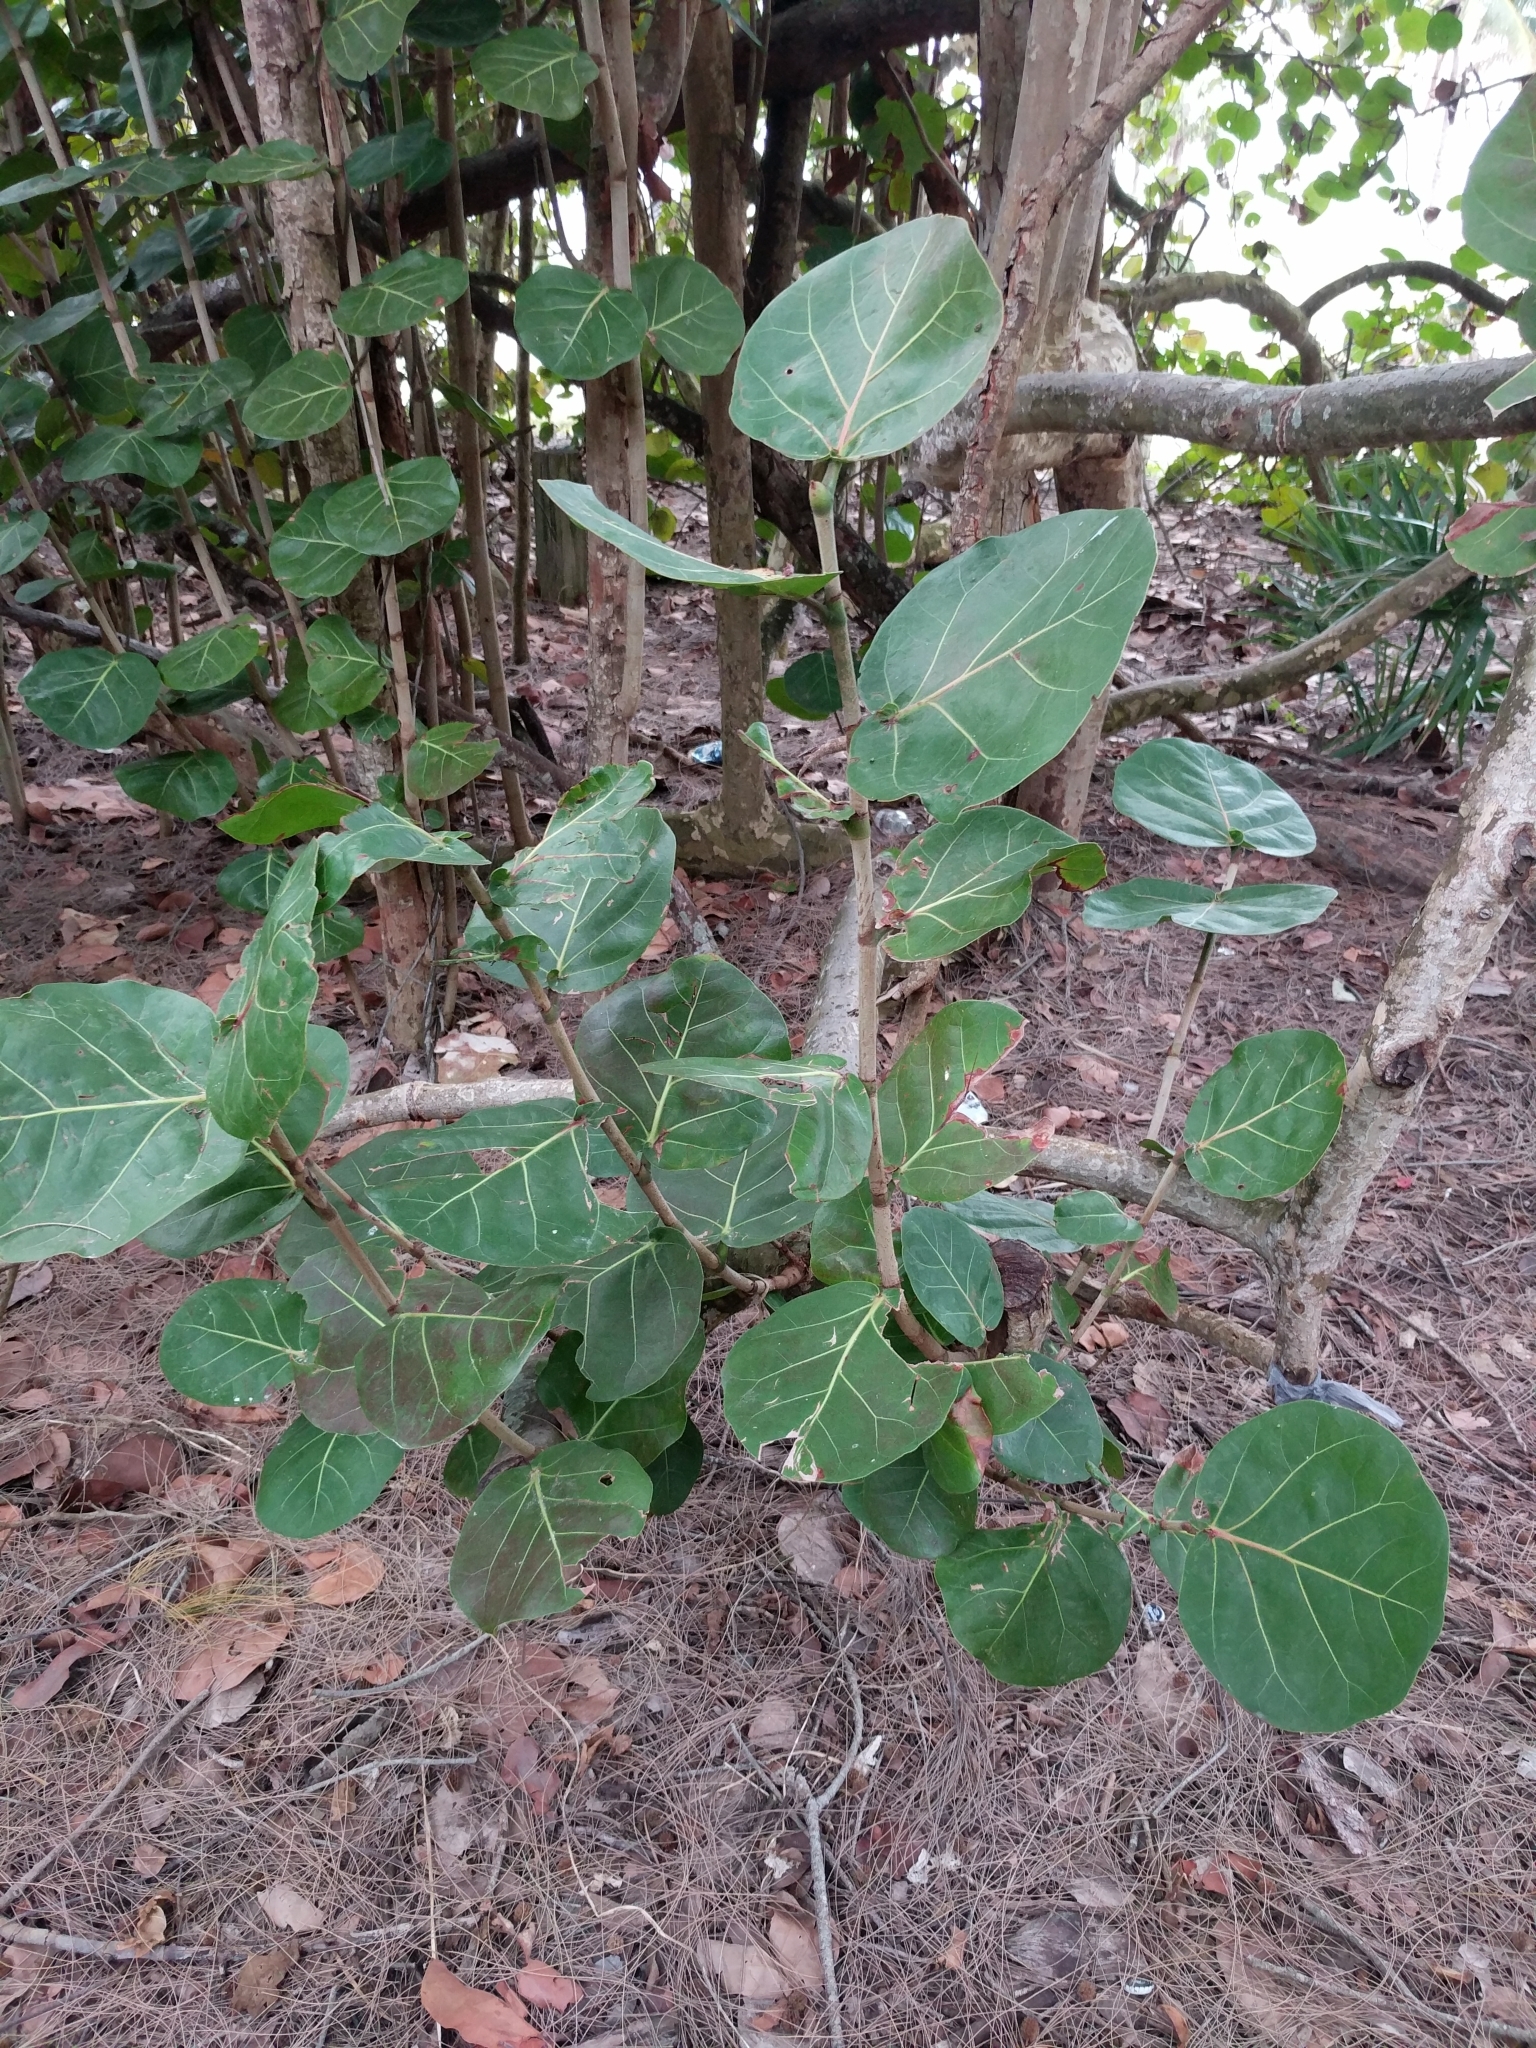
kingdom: Plantae
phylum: Tracheophyta
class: Magnoliopsida
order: Caryophyllales
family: Polygonaceae
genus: Coccoloba
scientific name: Coccoloba uvifera
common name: Seagrape
